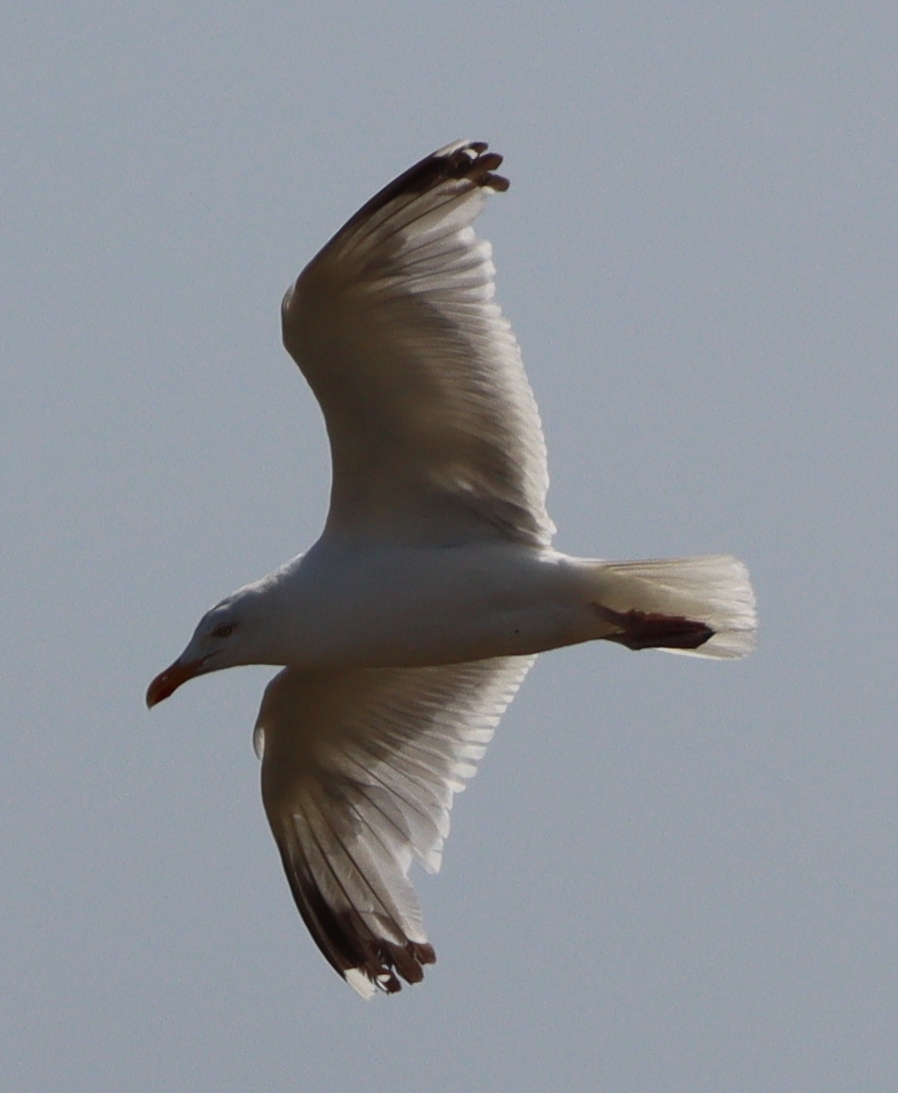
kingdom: Animalia
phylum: Chordata
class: Aves
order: Charadriiformes
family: Laridae
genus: Larus
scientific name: Larus argentatus
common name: Herring gull
